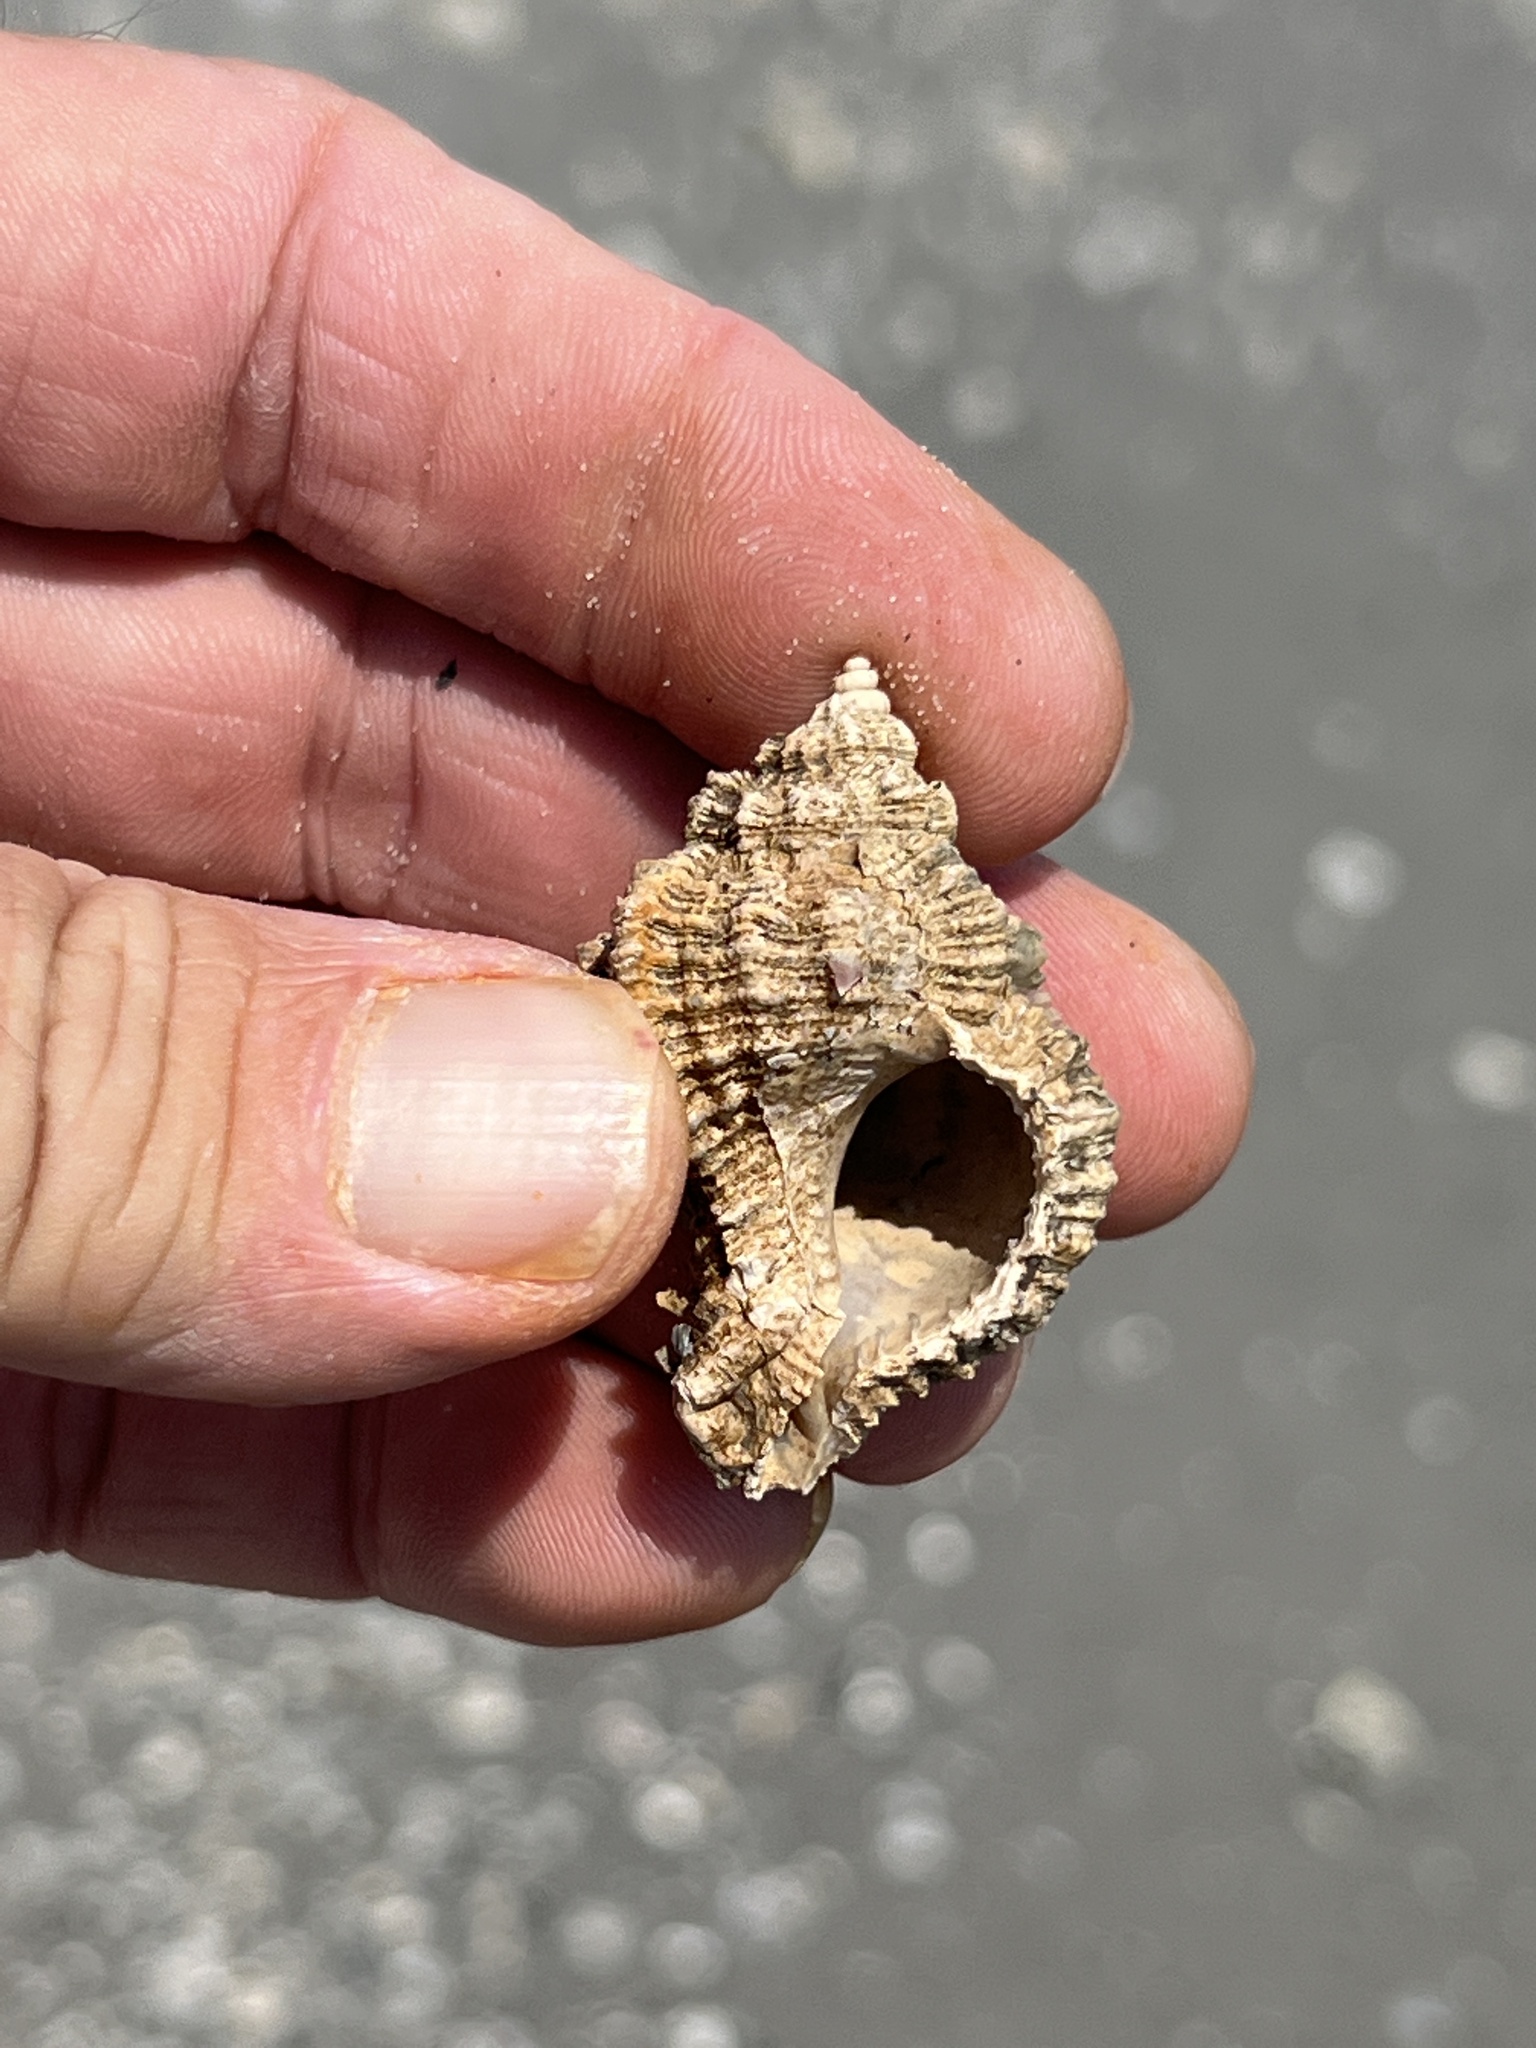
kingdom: Animalia
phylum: Mollusca
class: Gastropoda
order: Neogastropoda
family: Muricidae
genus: Phyllonotus
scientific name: Phyllonotus pomum
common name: Apple murex
